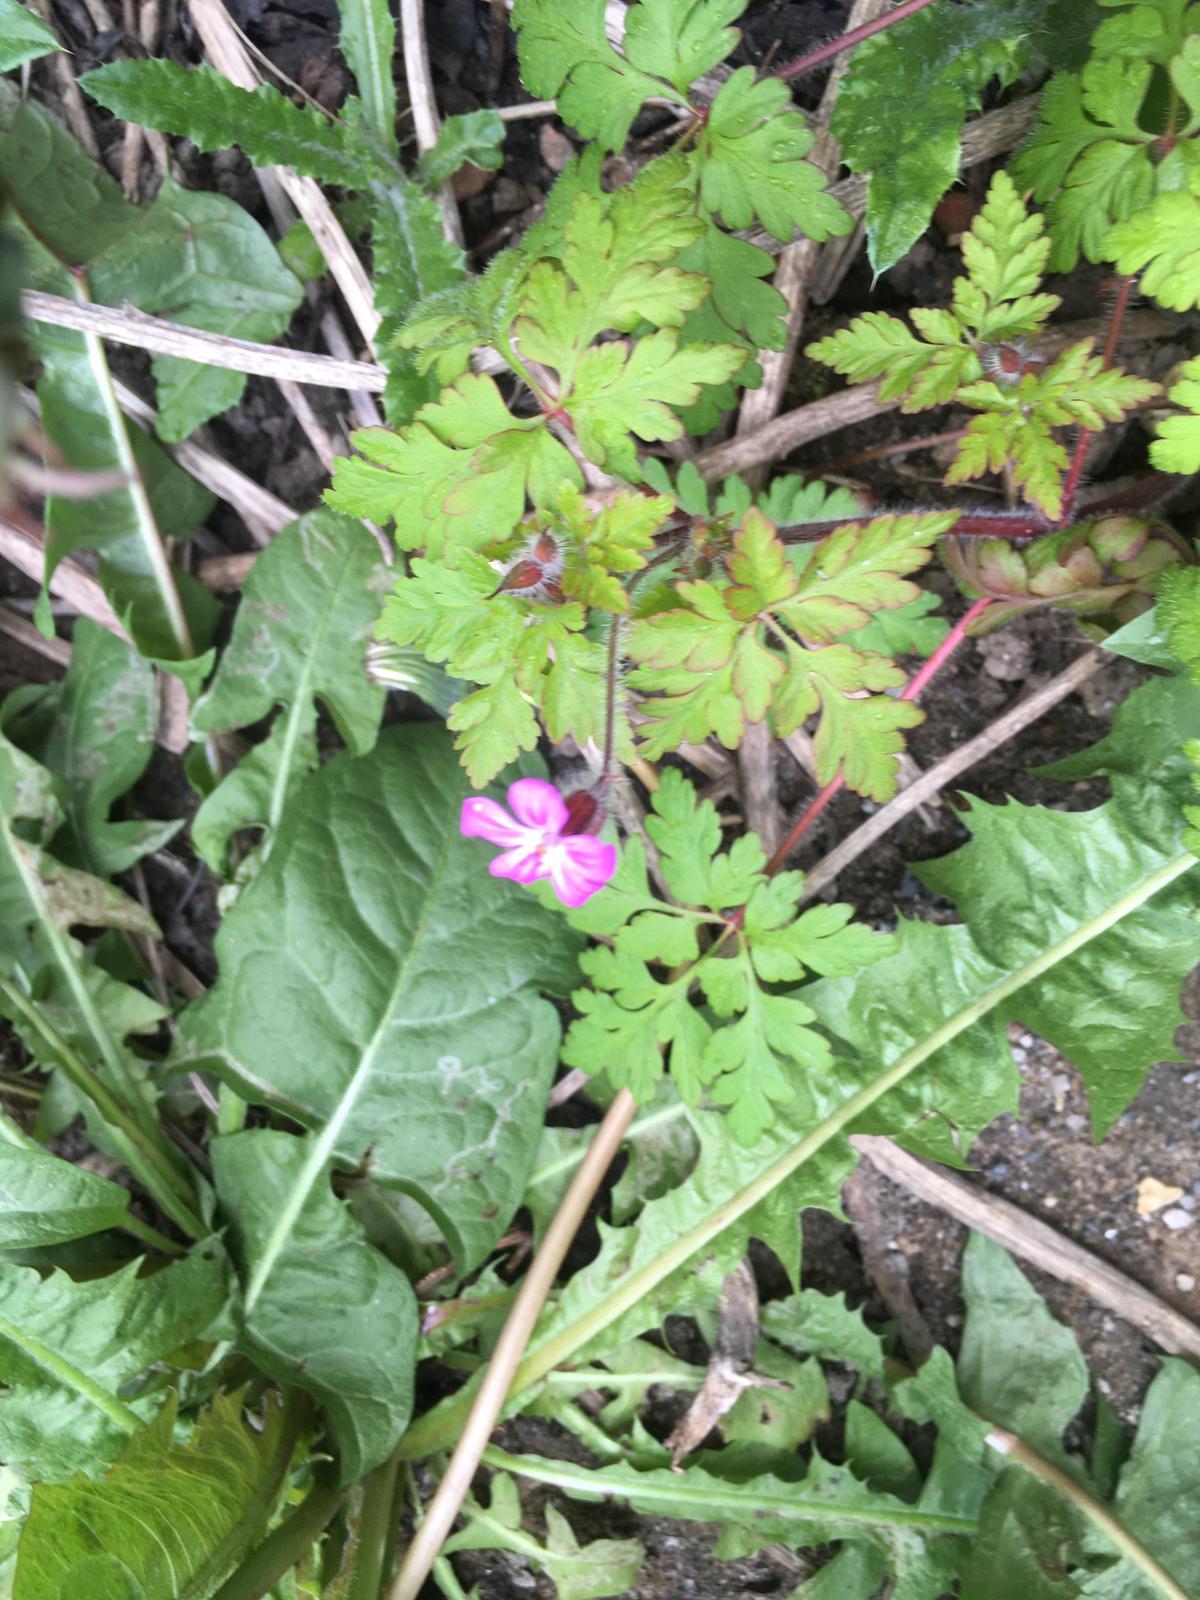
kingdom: Plantae
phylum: Tracheophyta
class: Magnoliopsida
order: Geraniales
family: Geraniaceae
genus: Geranium
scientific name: Geranium robertianum
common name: Herb-robert
